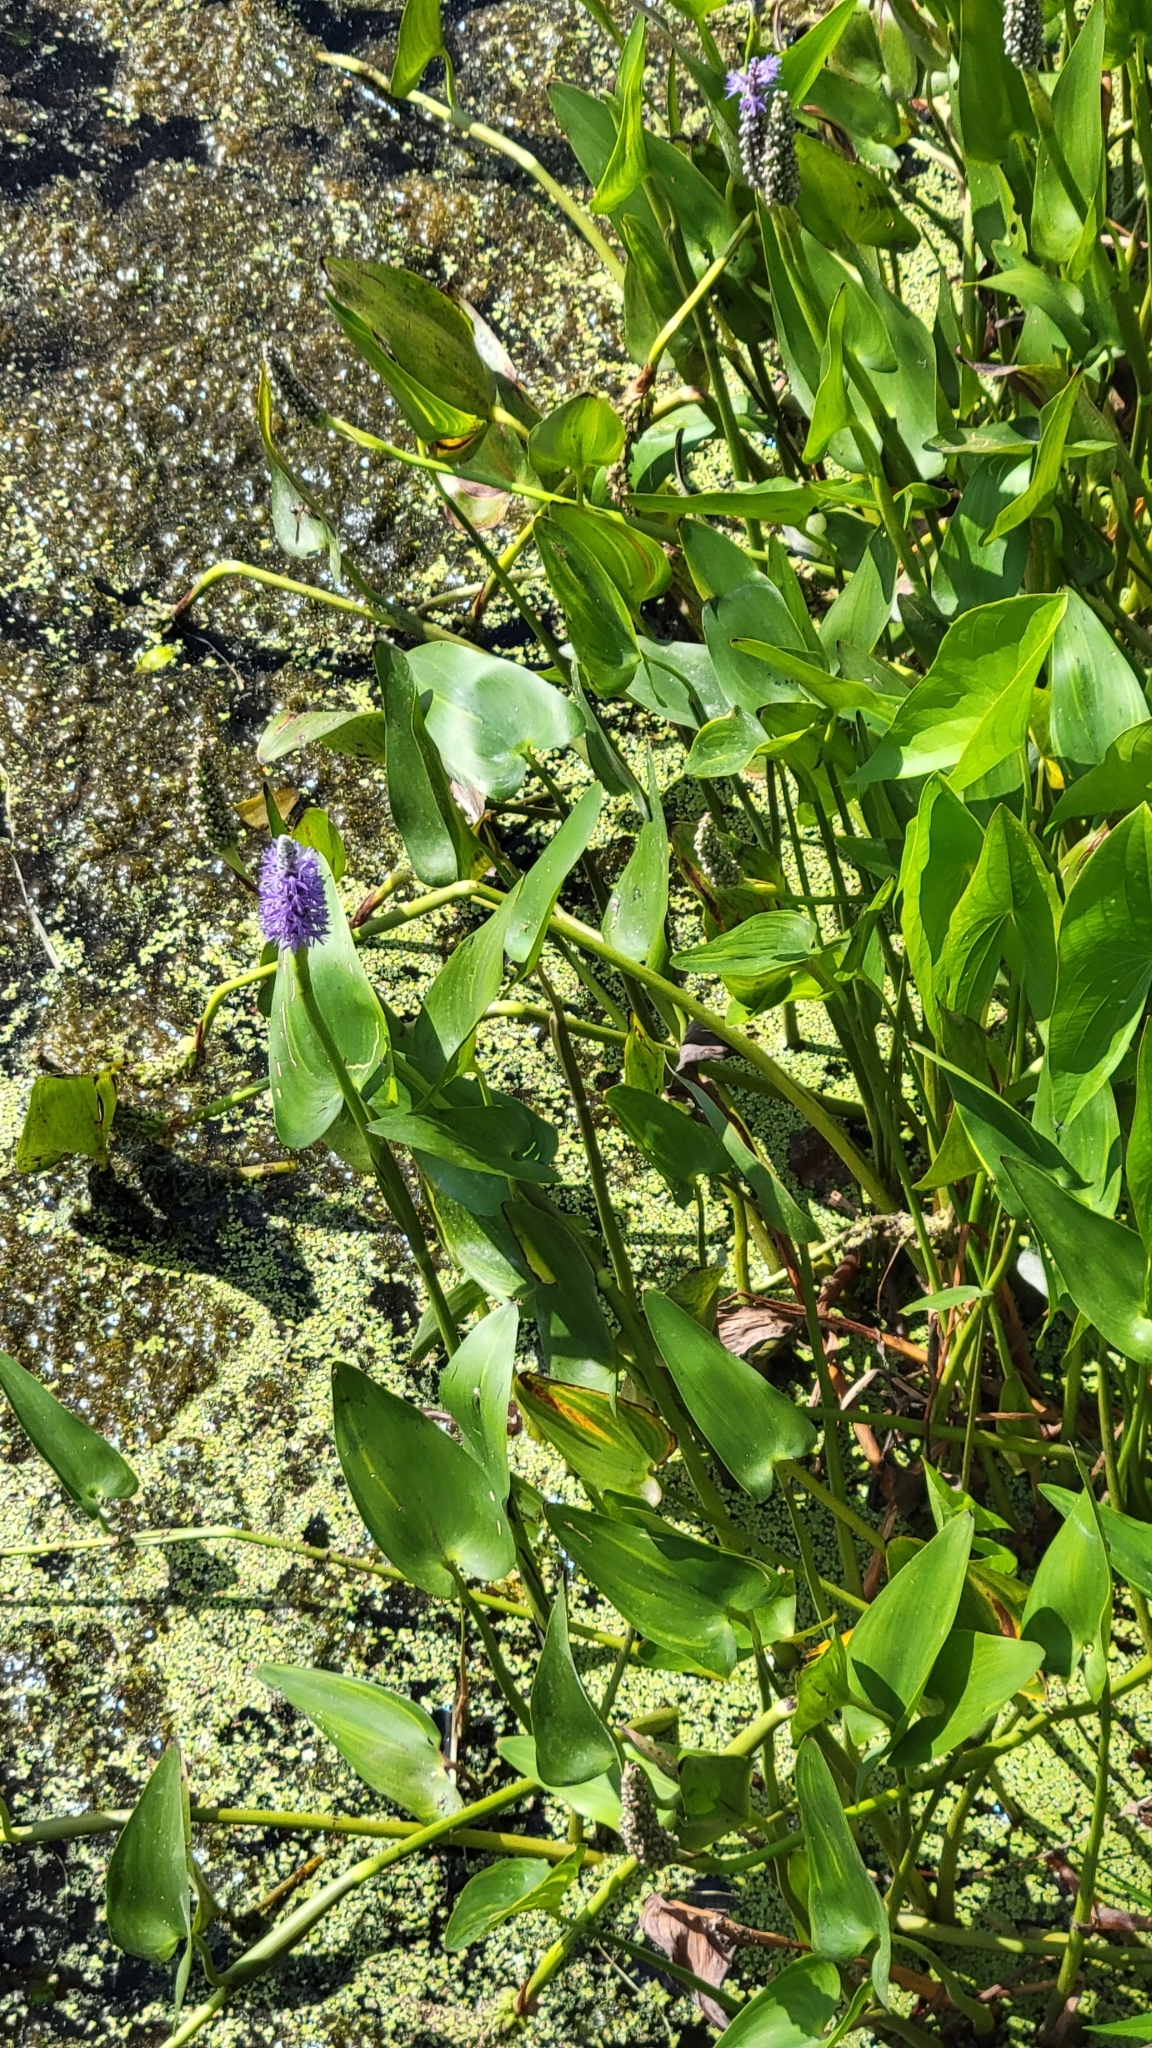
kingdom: Plantae
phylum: Tracheophyta
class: Liliopsida
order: Commelinales
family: Pontederiaceae
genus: Pontederia
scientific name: Pontederia cordata
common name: Pickerelweed
